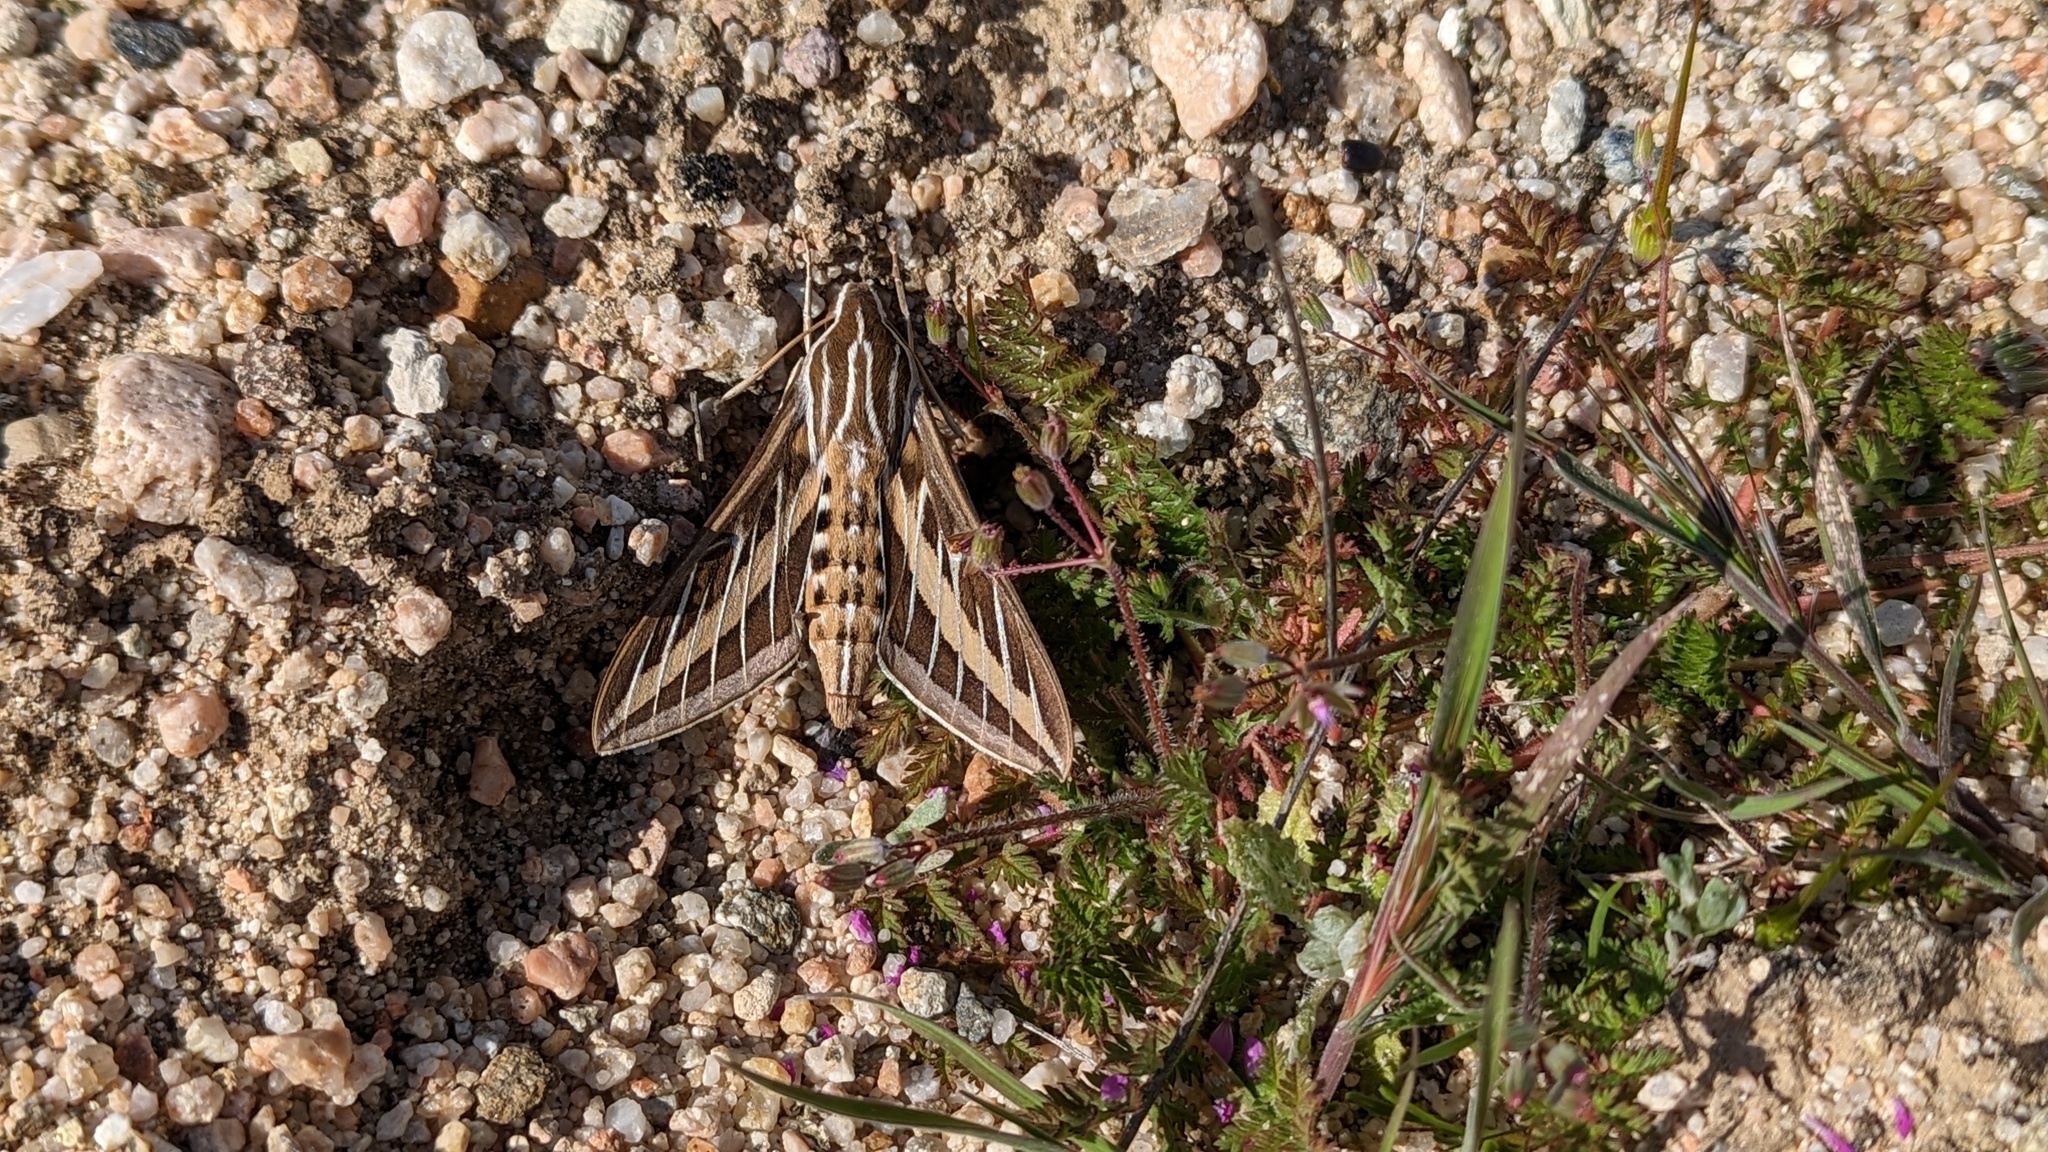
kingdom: Animalia
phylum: Arthropoda
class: Insecta
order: Lepidoptera
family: Sphingidae
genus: Hyles
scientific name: Hyles lineata
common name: White-lined sphinx
